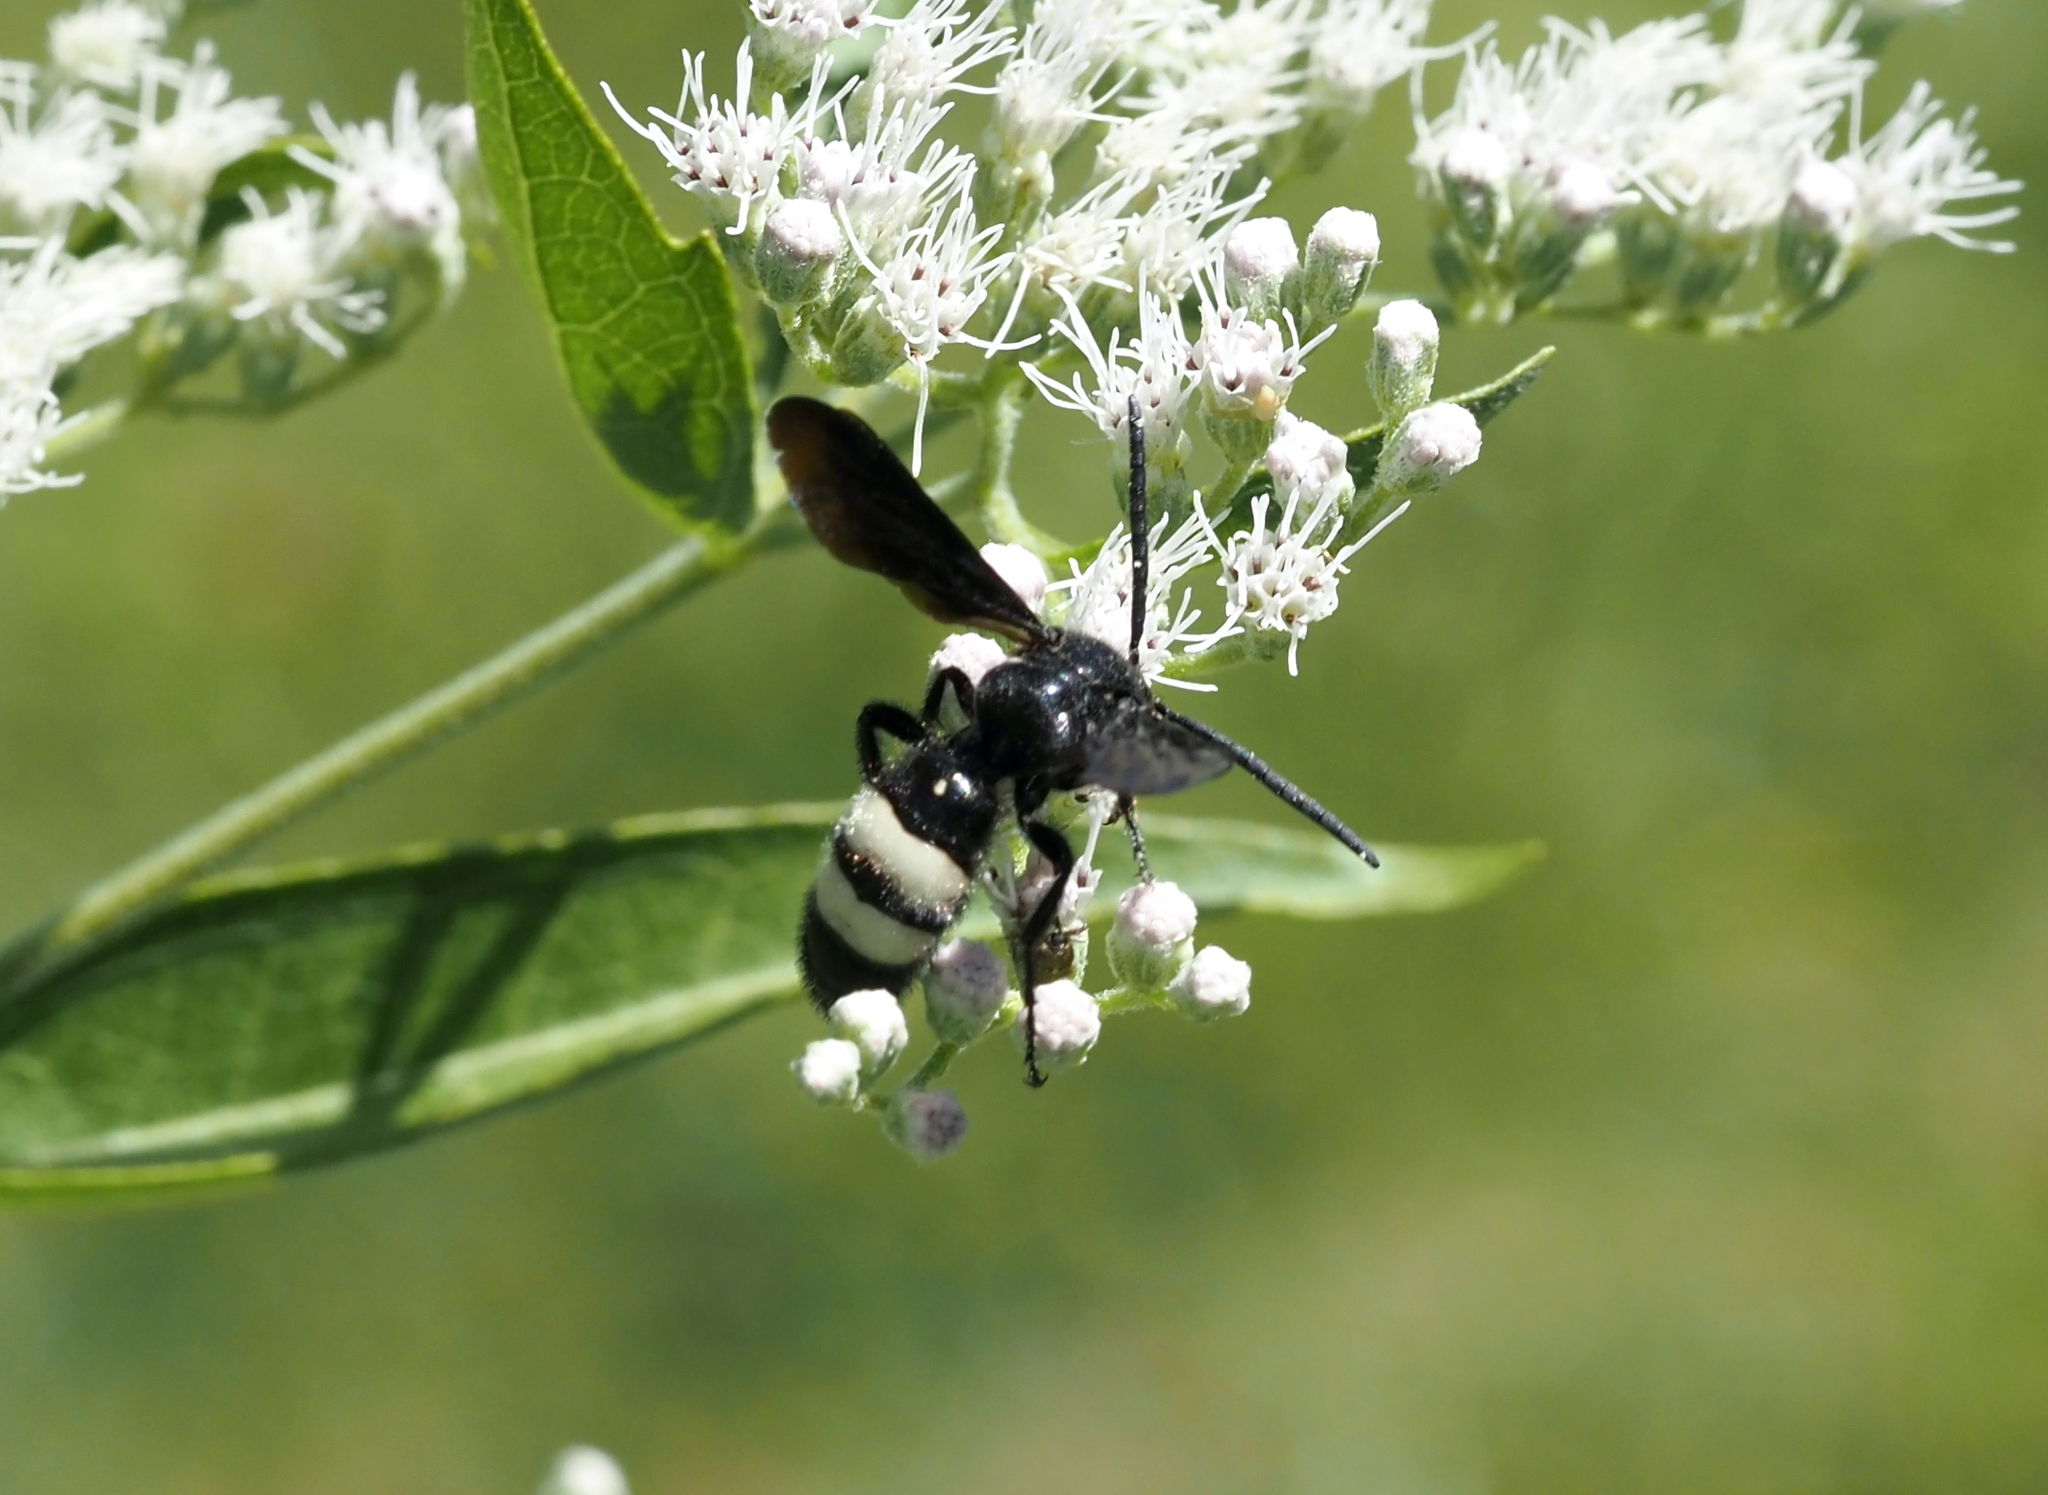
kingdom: Animalia
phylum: Arthropoda
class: Insecta
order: Hymenoptera
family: Scoliidae
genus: Scolia
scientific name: Scolia bicincta
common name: Double-banded scoliid wasp
